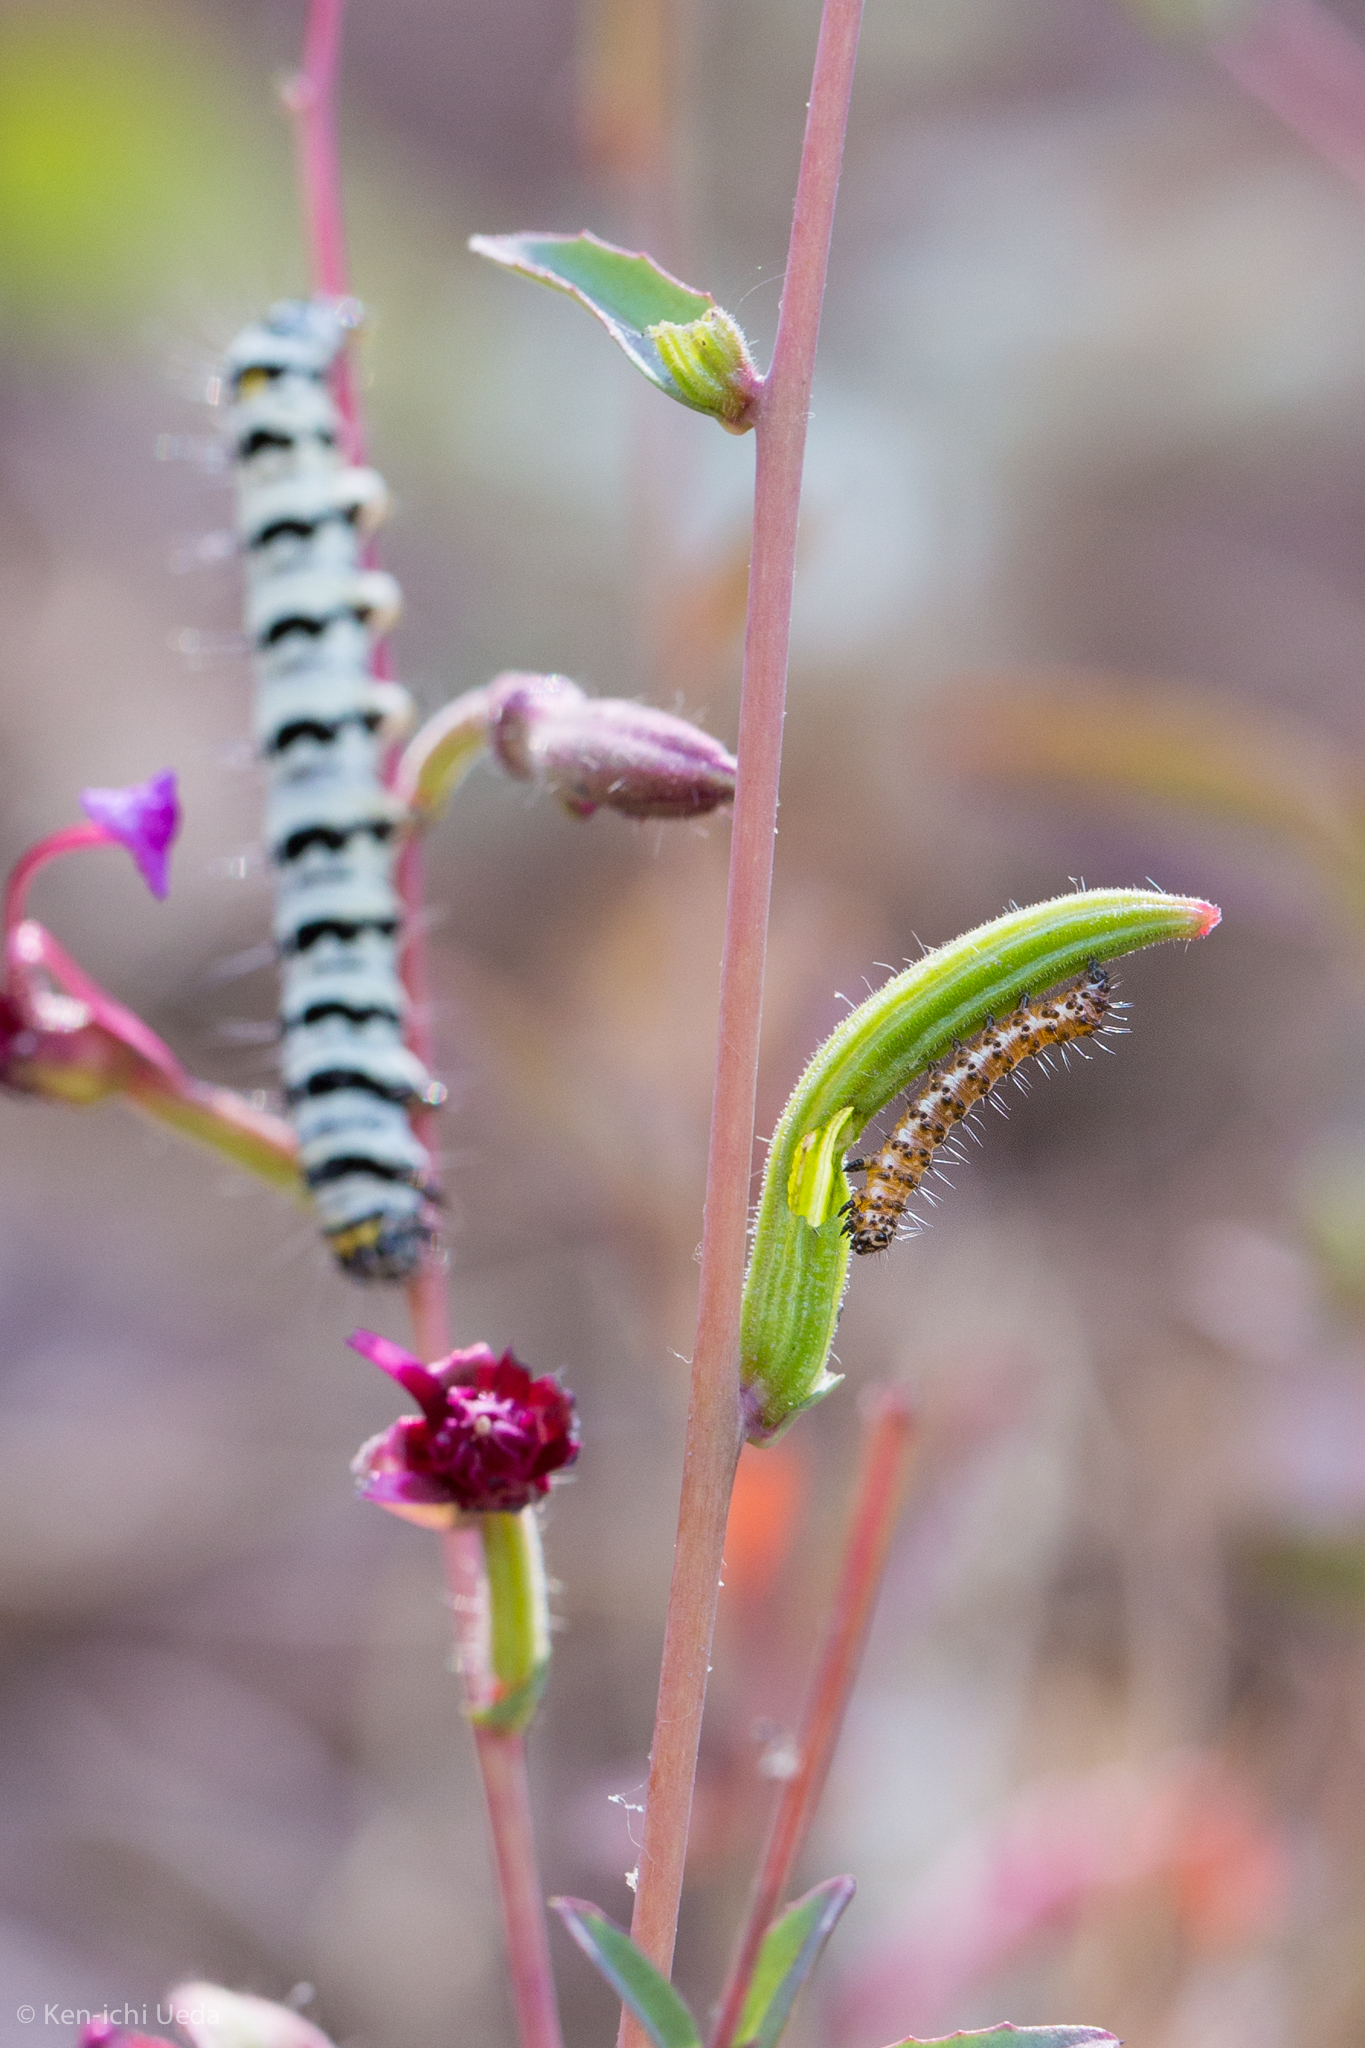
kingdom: Animalia
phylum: Arthropoda
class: Insecta
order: Lepidoptera
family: Noctuidae
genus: Alypia
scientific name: Alypia mariposa
